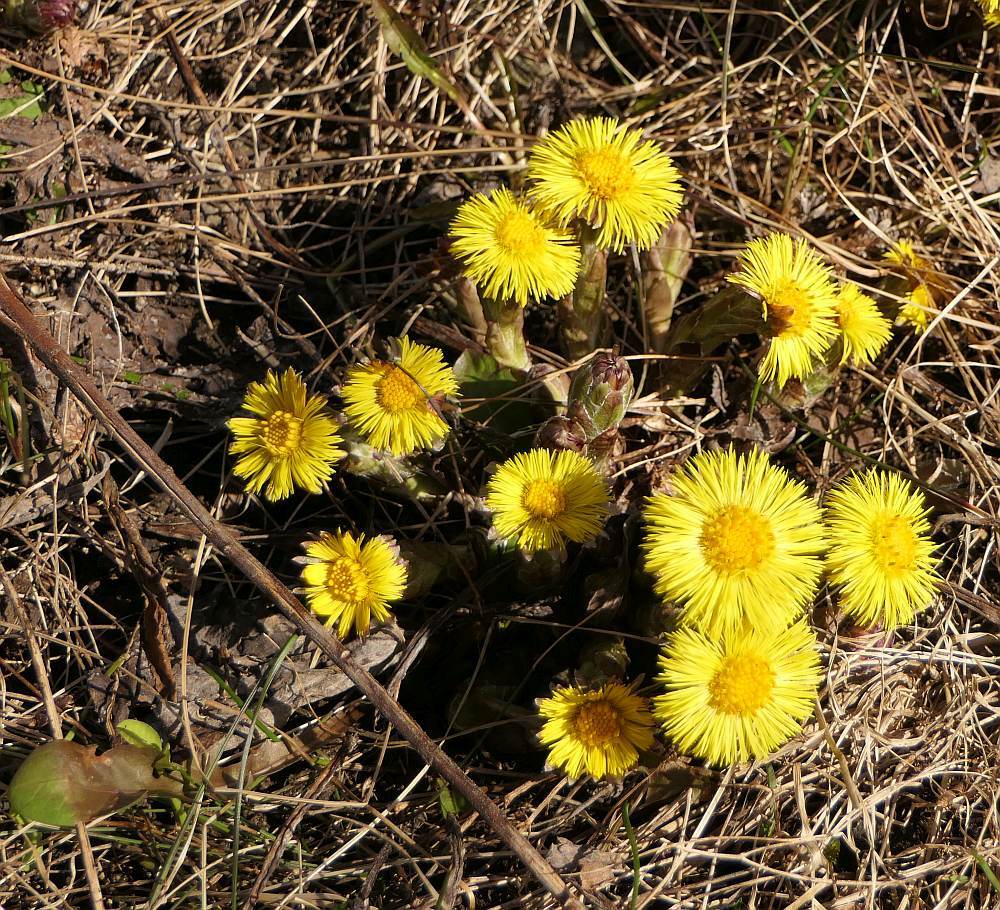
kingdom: Plantae
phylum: Tracheophyta
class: Magnoliopsida
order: Asterales
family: Asteraceae
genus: Tussilago
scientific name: Tussilago farfara
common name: Coltsfoot
